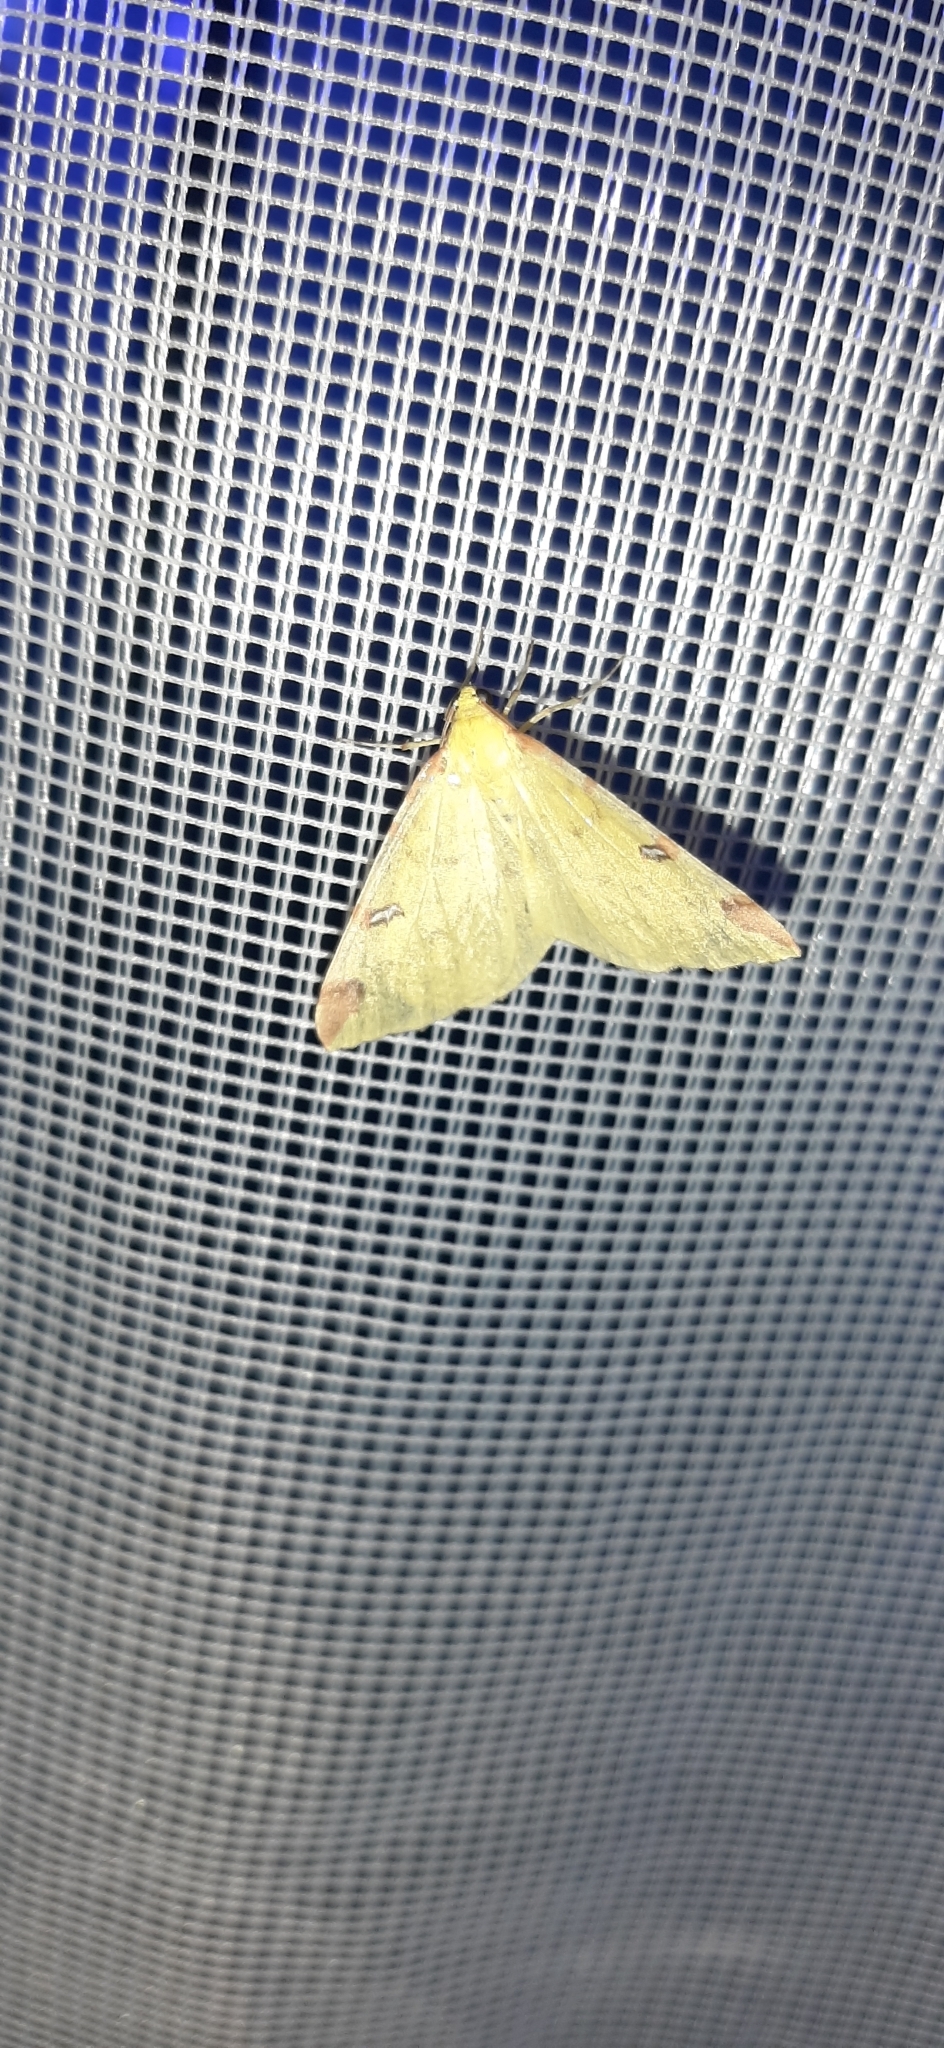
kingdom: Animalia
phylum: Arthropoda
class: Insecta
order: Lepidoptera
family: Geometridae
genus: Opisthograptis
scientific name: Opisthograptis luteolata
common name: Brimstone moth
